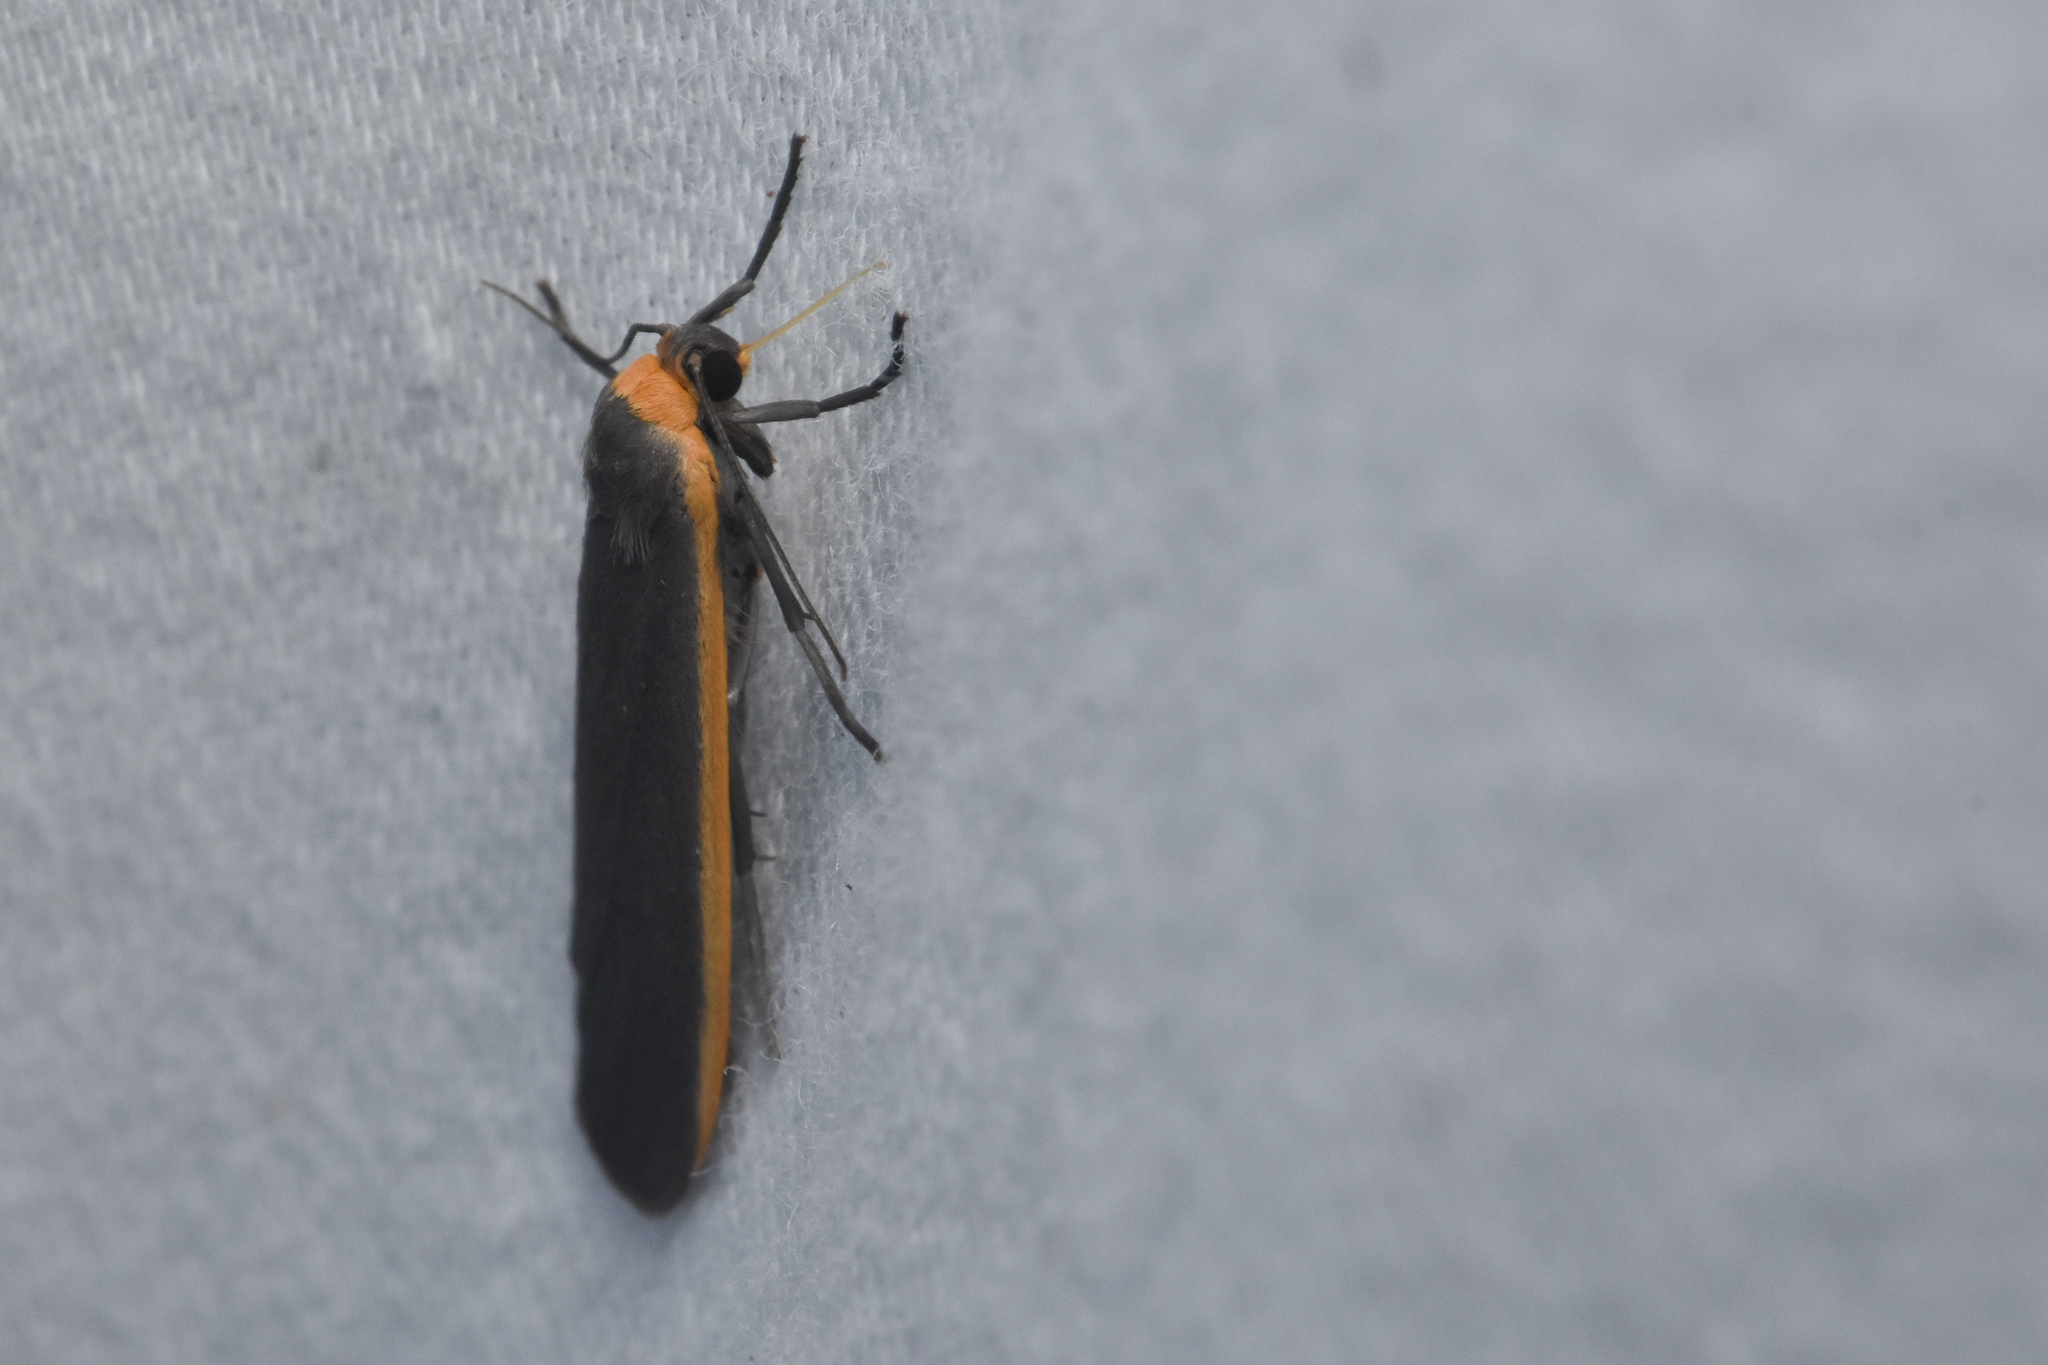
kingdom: Animalia
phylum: Arthropoda
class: Insecta
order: Lepidoptera
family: Erebidae
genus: Manulea
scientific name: Manulea bicolor
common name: Bicolored moth
